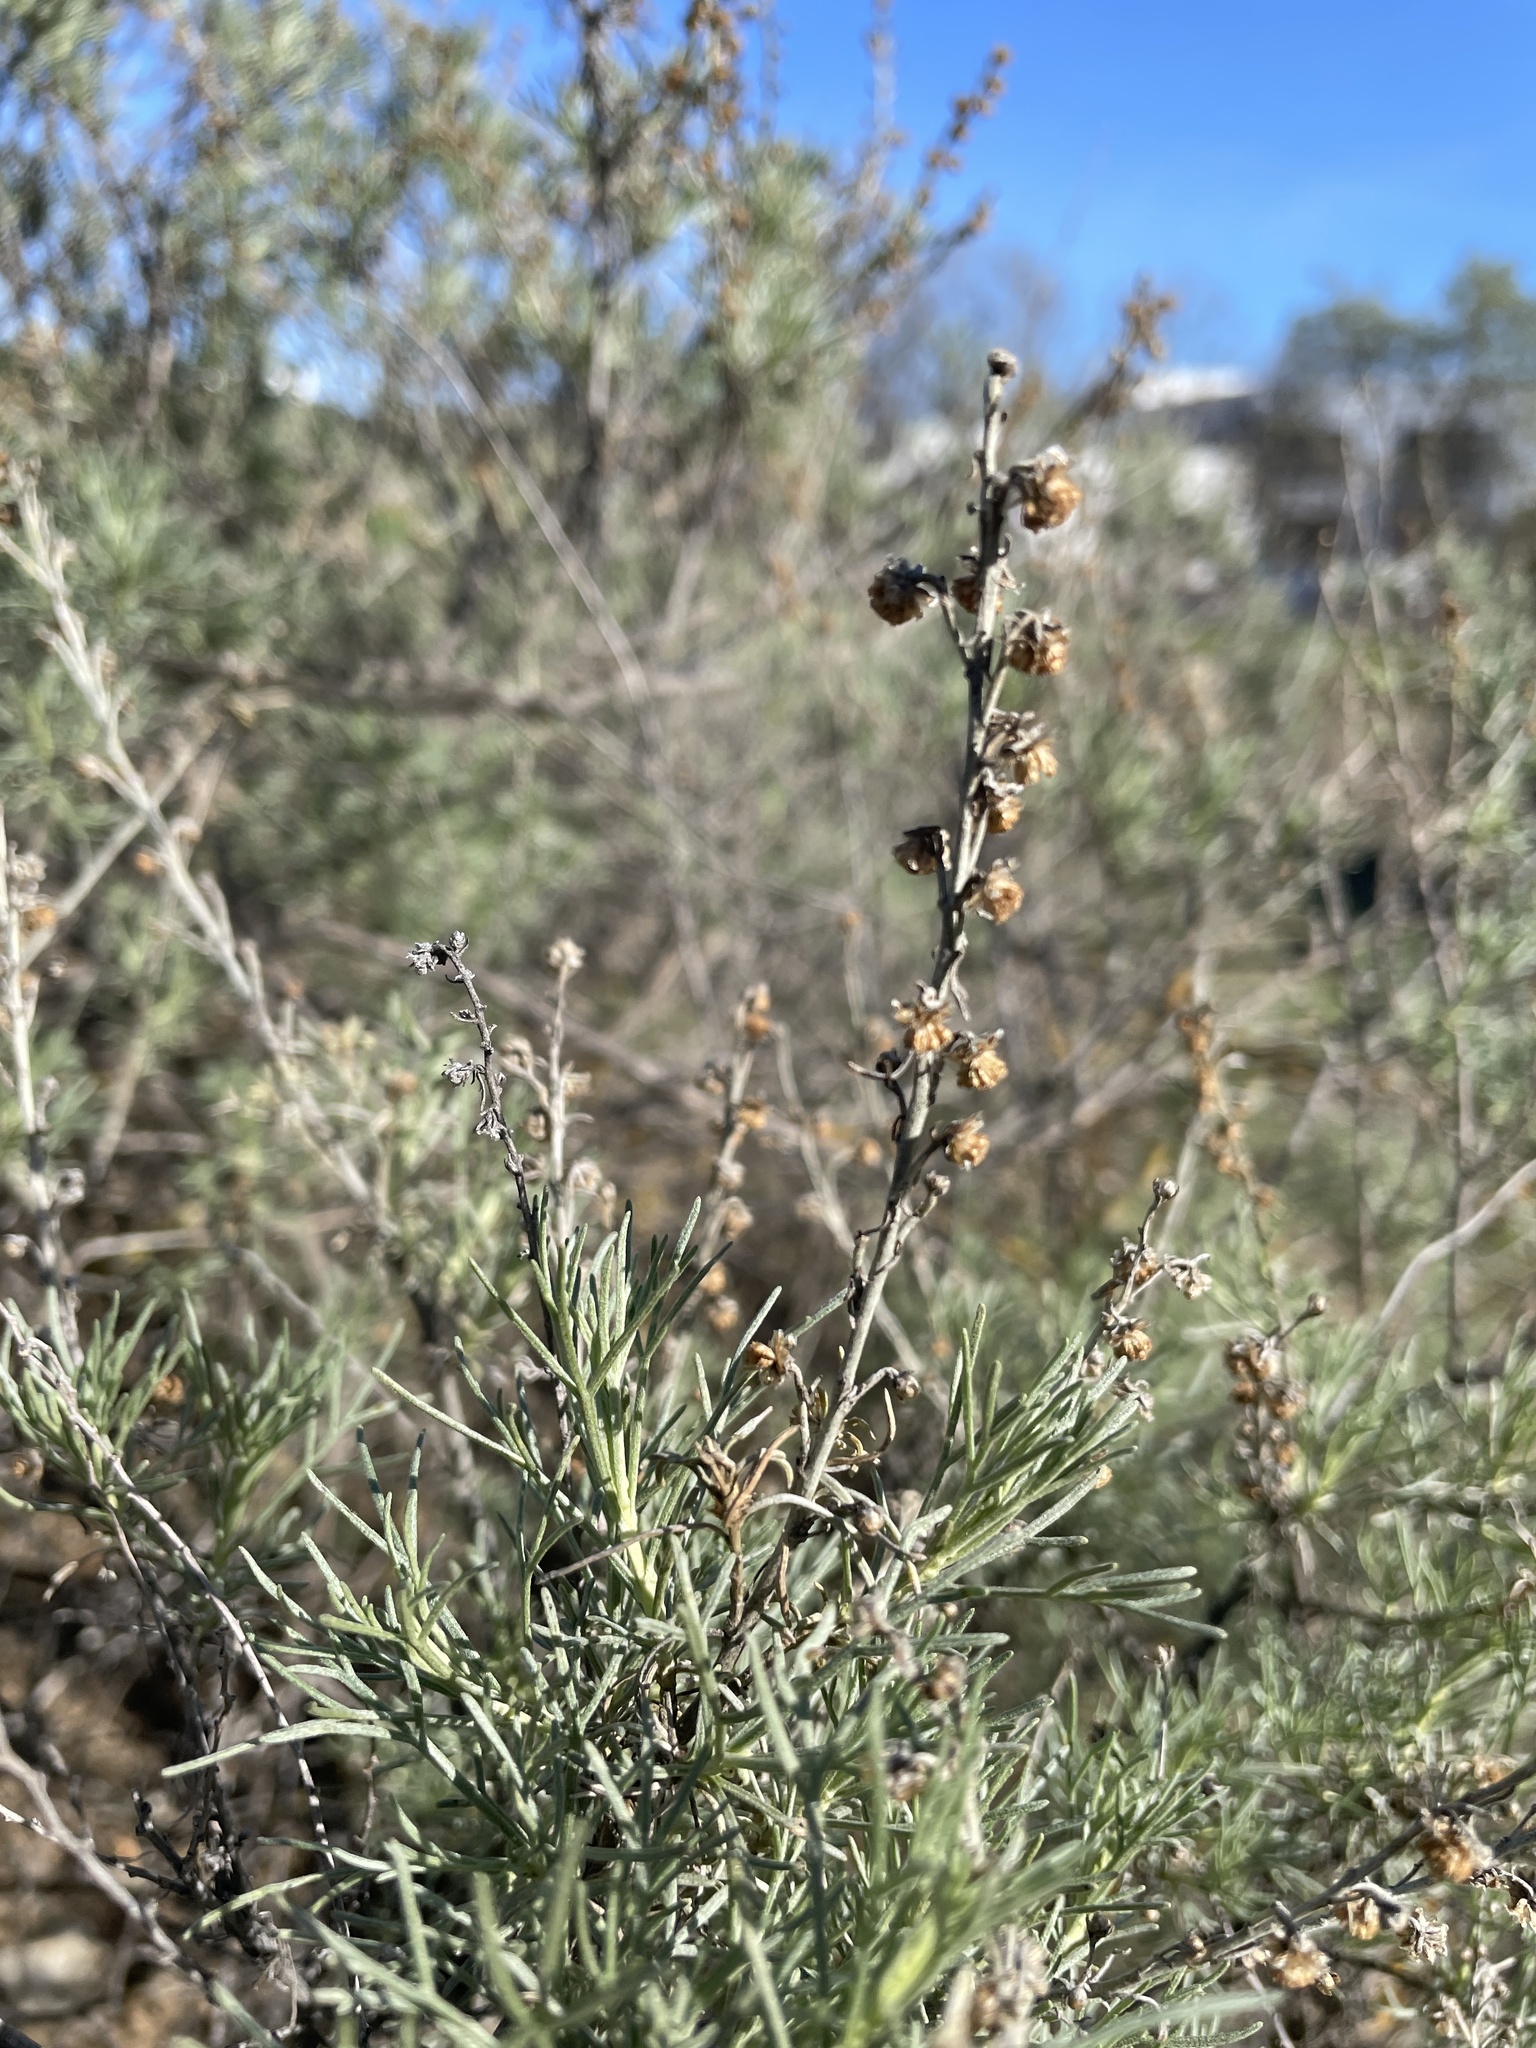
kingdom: Plantae
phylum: Tracheophyta
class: Magnoliopsida
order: Asterales
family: Asteraceae
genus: Artemisia
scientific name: Artemisia californica
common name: California sagebrush
